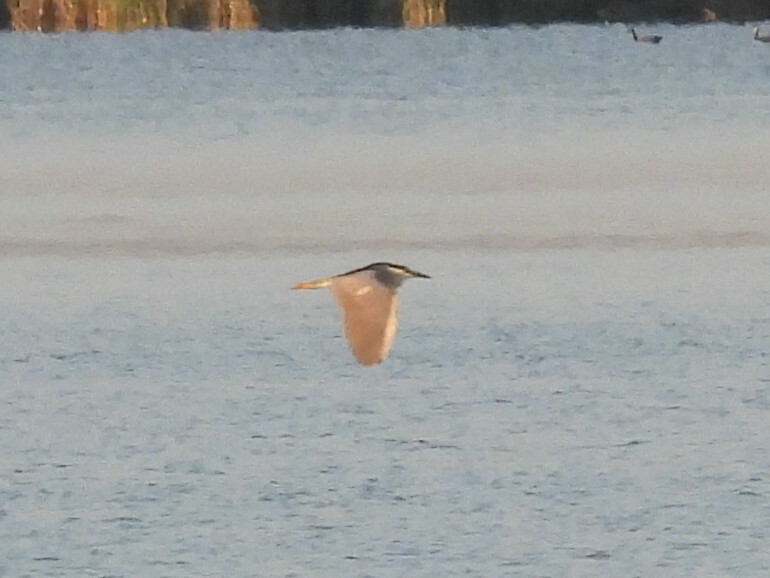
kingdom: Animalia
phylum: Chordata
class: Aves
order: Pelecaniformes
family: Ardeidae
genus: Nycticorax
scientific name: Nycticorax nycticorax
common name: Black-crowned night heron
